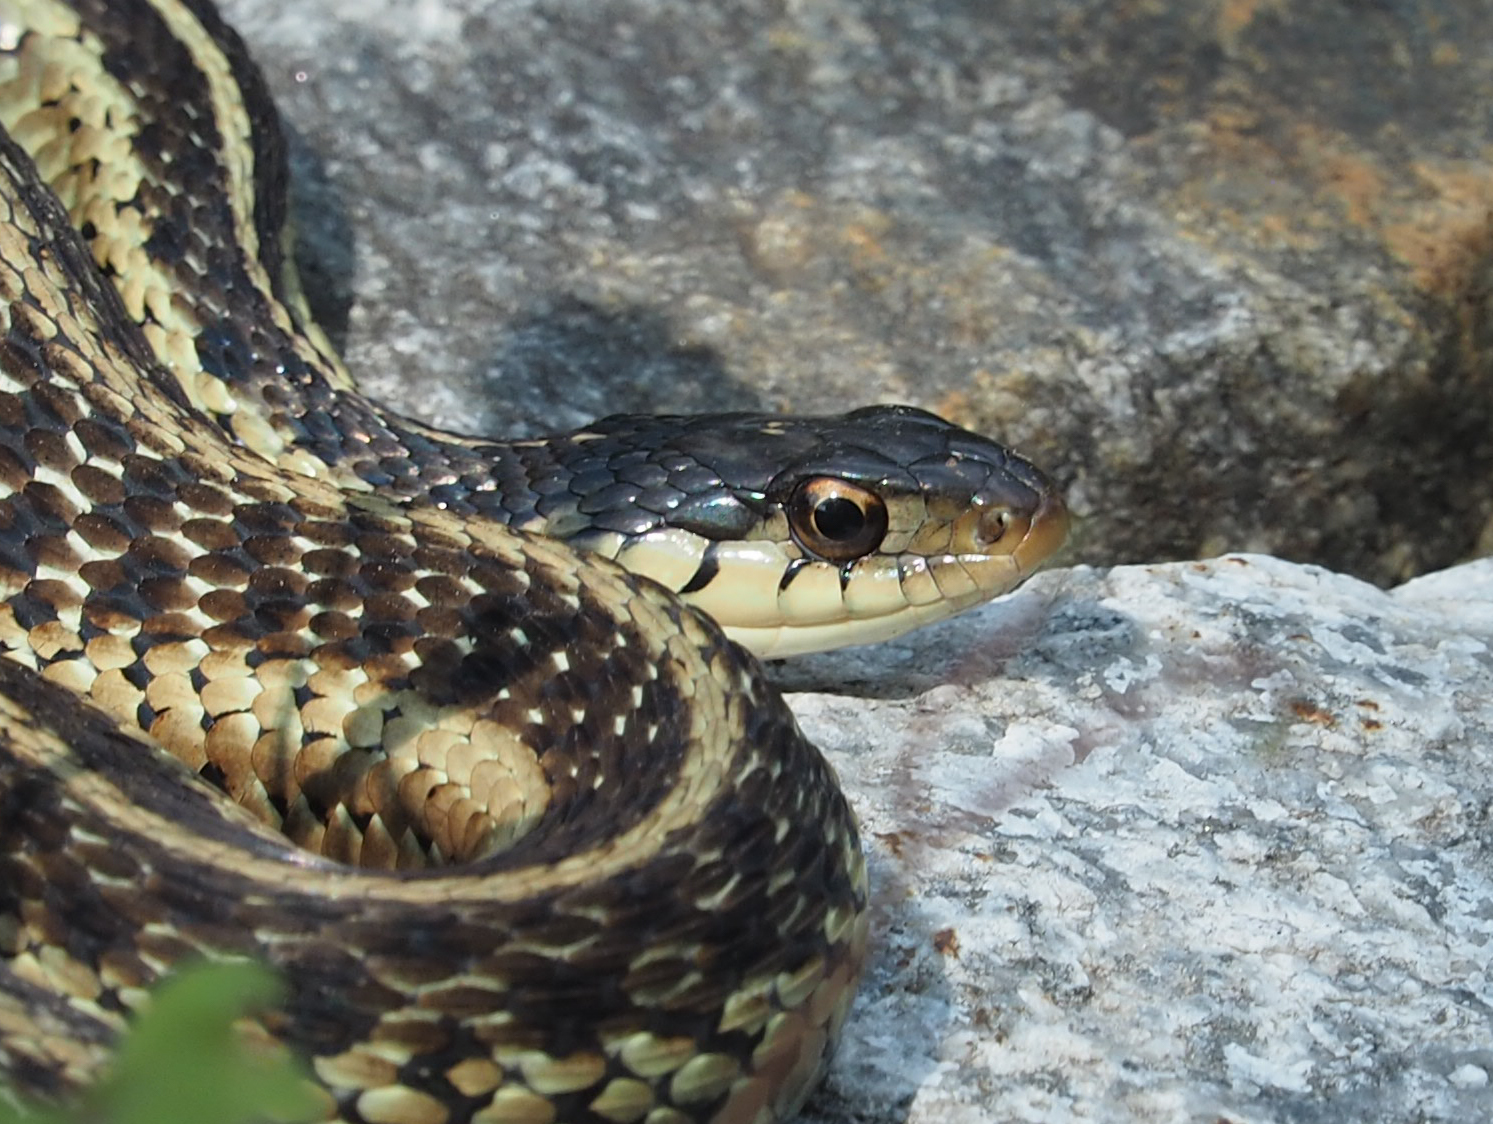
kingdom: Animalia
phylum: Chordata
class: Squamata
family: Colubridae
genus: Thamnophis
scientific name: Thamnophis sirtalis
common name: Common garter snake
